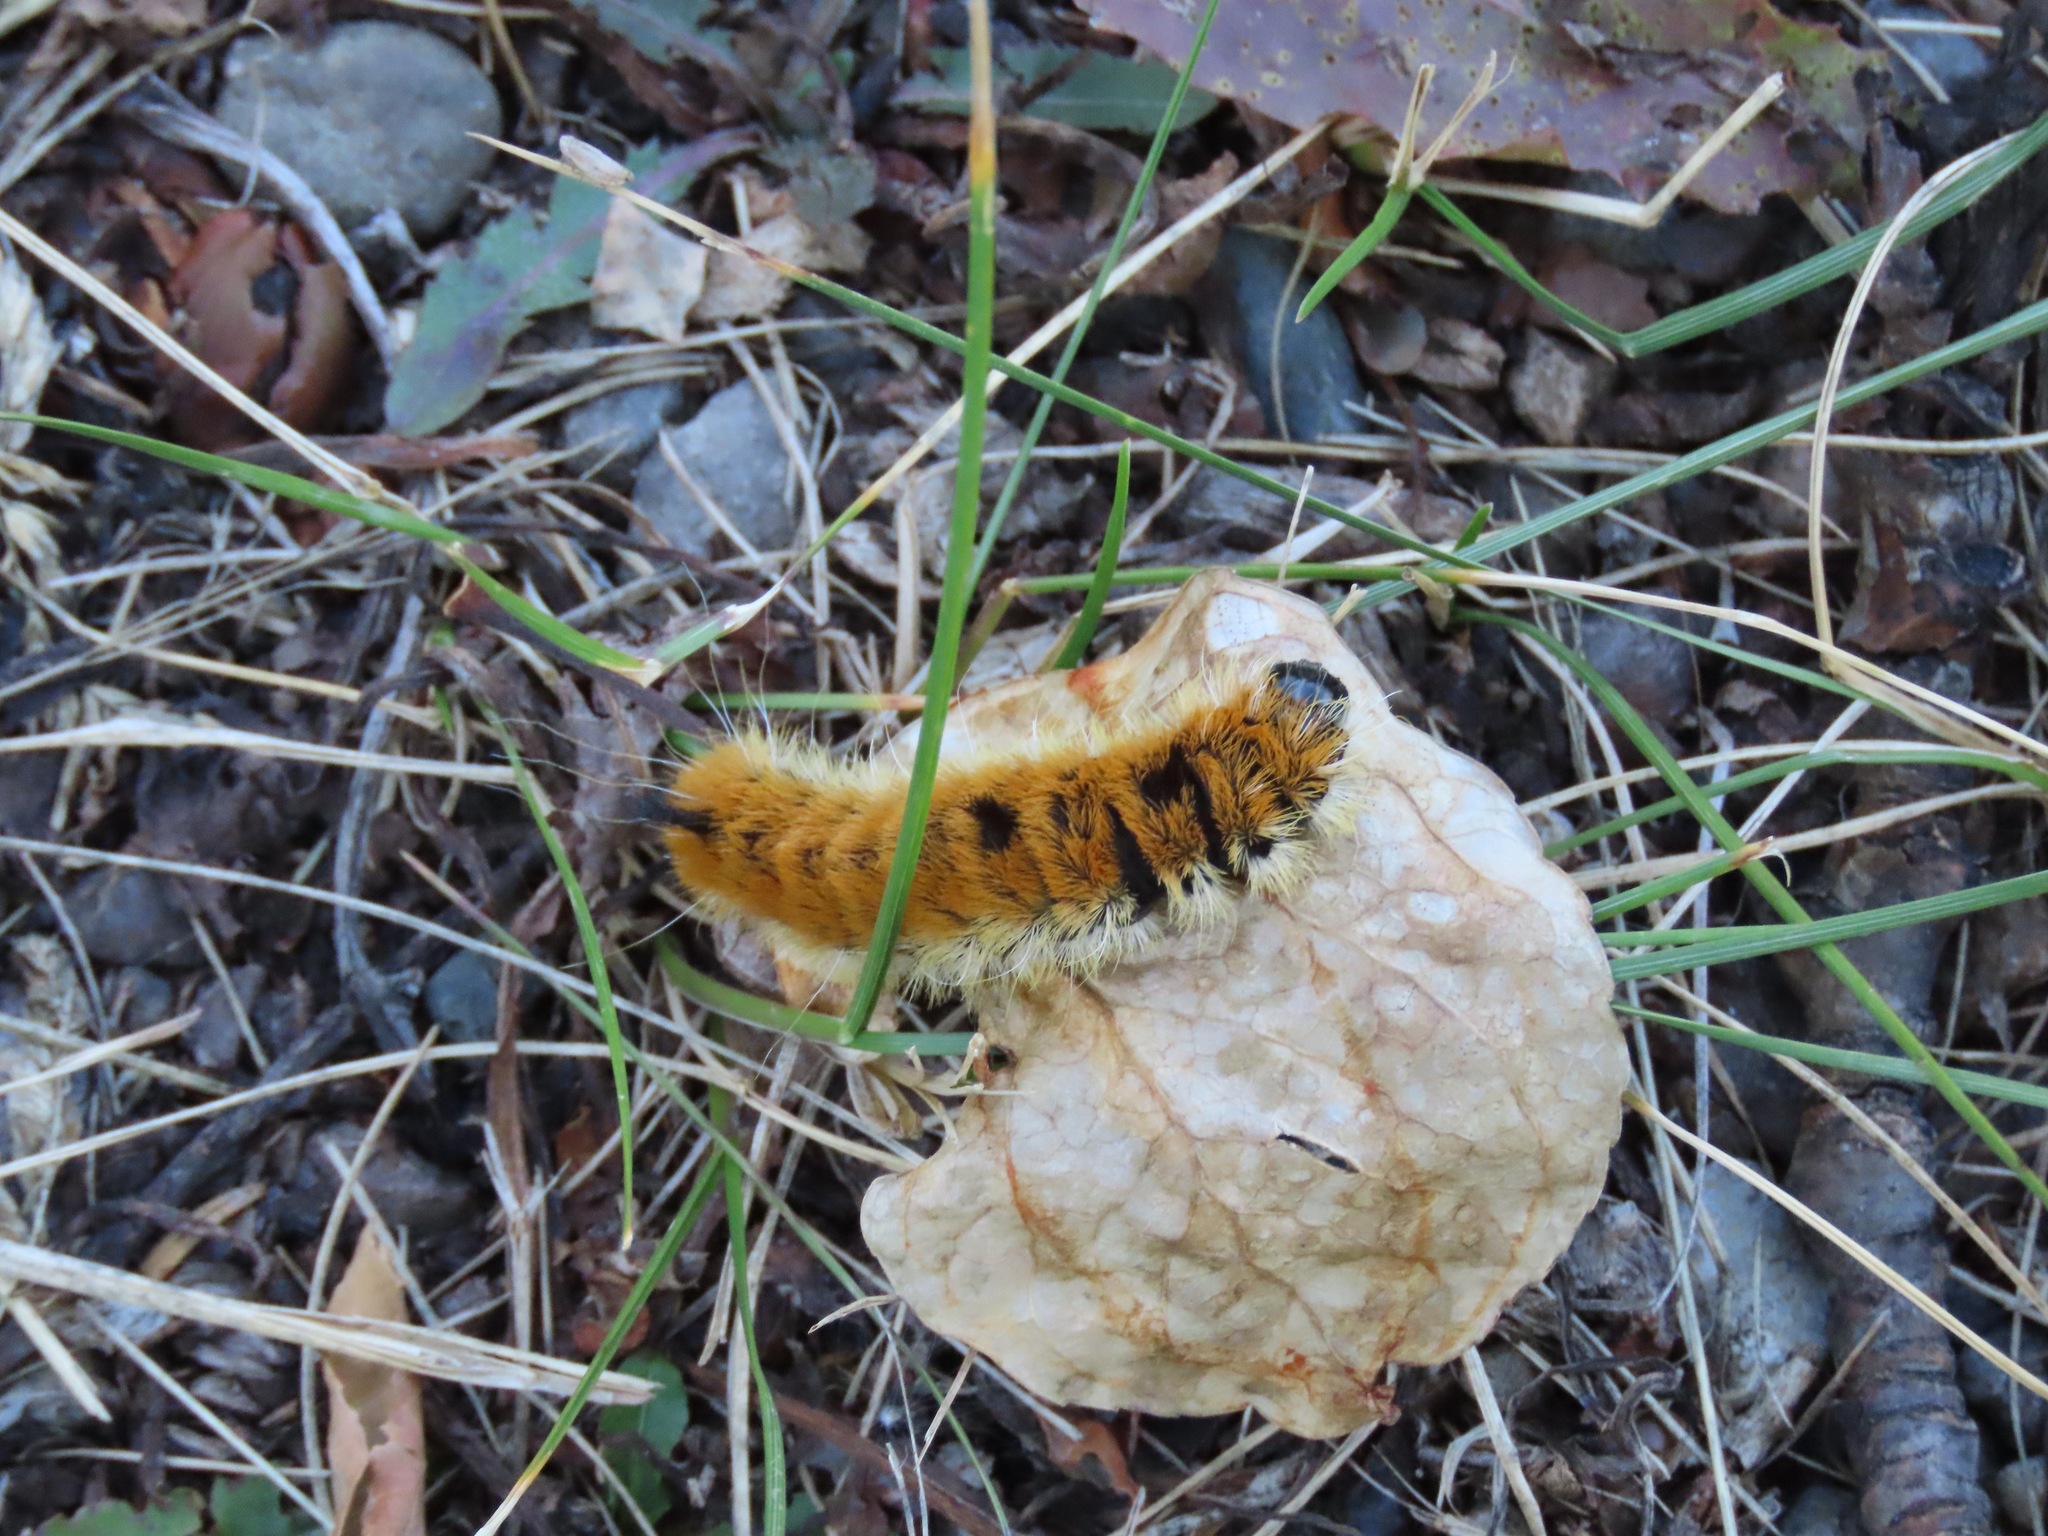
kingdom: Animalia
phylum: Arthropoda
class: Insecta
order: Lepidoptera
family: Noctuidae
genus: Acronicta
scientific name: Acronicta insita
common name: Large gray dagger
